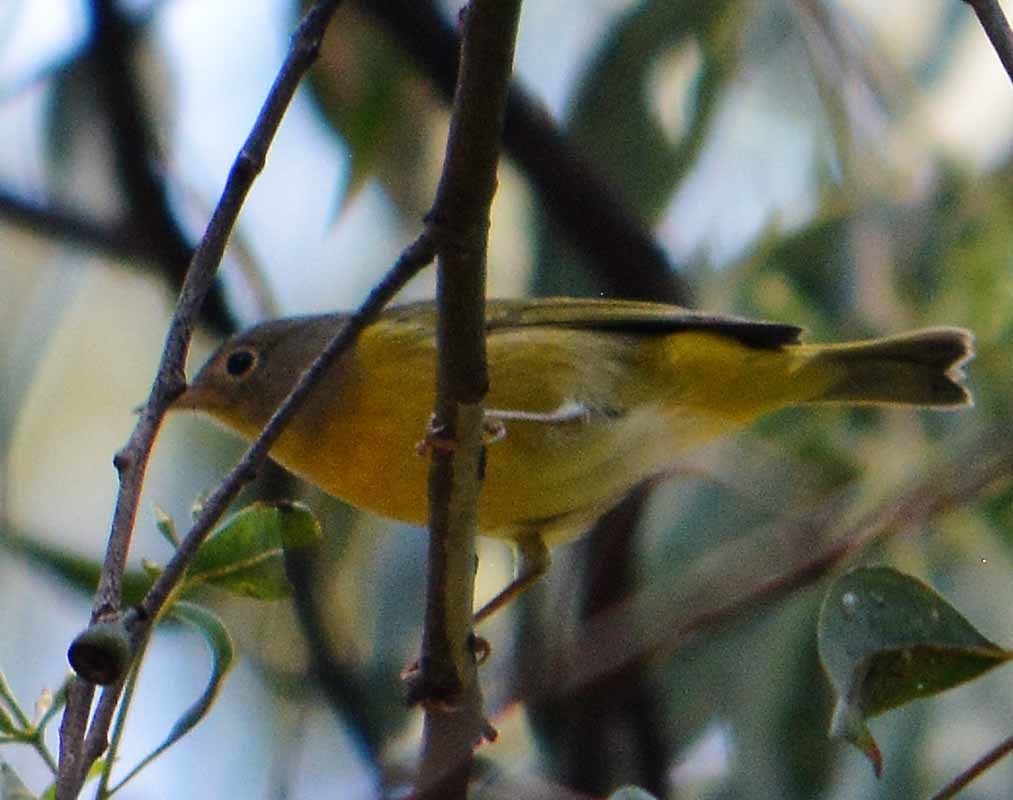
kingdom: Animalia
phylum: Chordata
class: Aves
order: Passeriformes
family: Parulidae
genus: Leiothlypis
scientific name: Leiothlypis ruficapilla
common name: Nashville warbler
